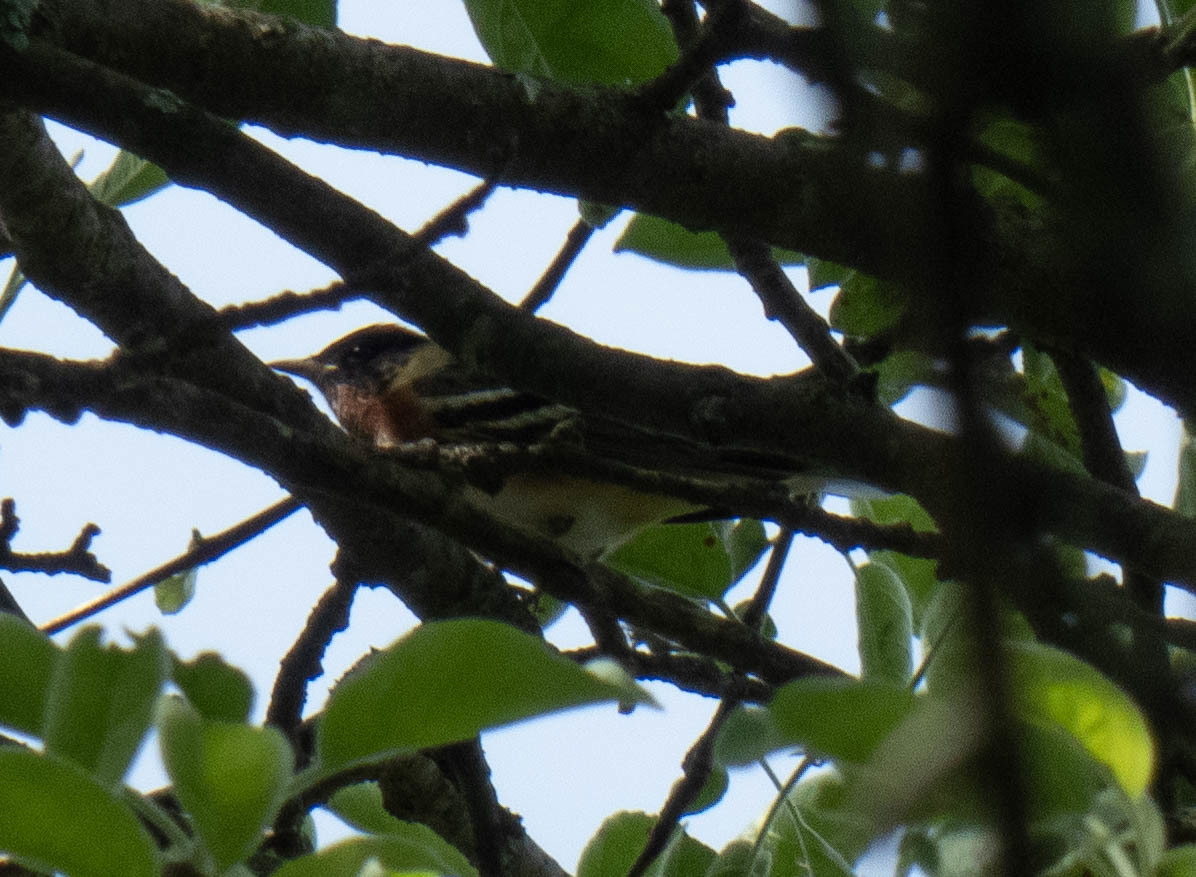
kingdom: Animalia
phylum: Chordata
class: Aves
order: Passeriformes
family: Parulidae
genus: Setophaga
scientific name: Setophaga castanea
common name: Bay-breasted warbler
